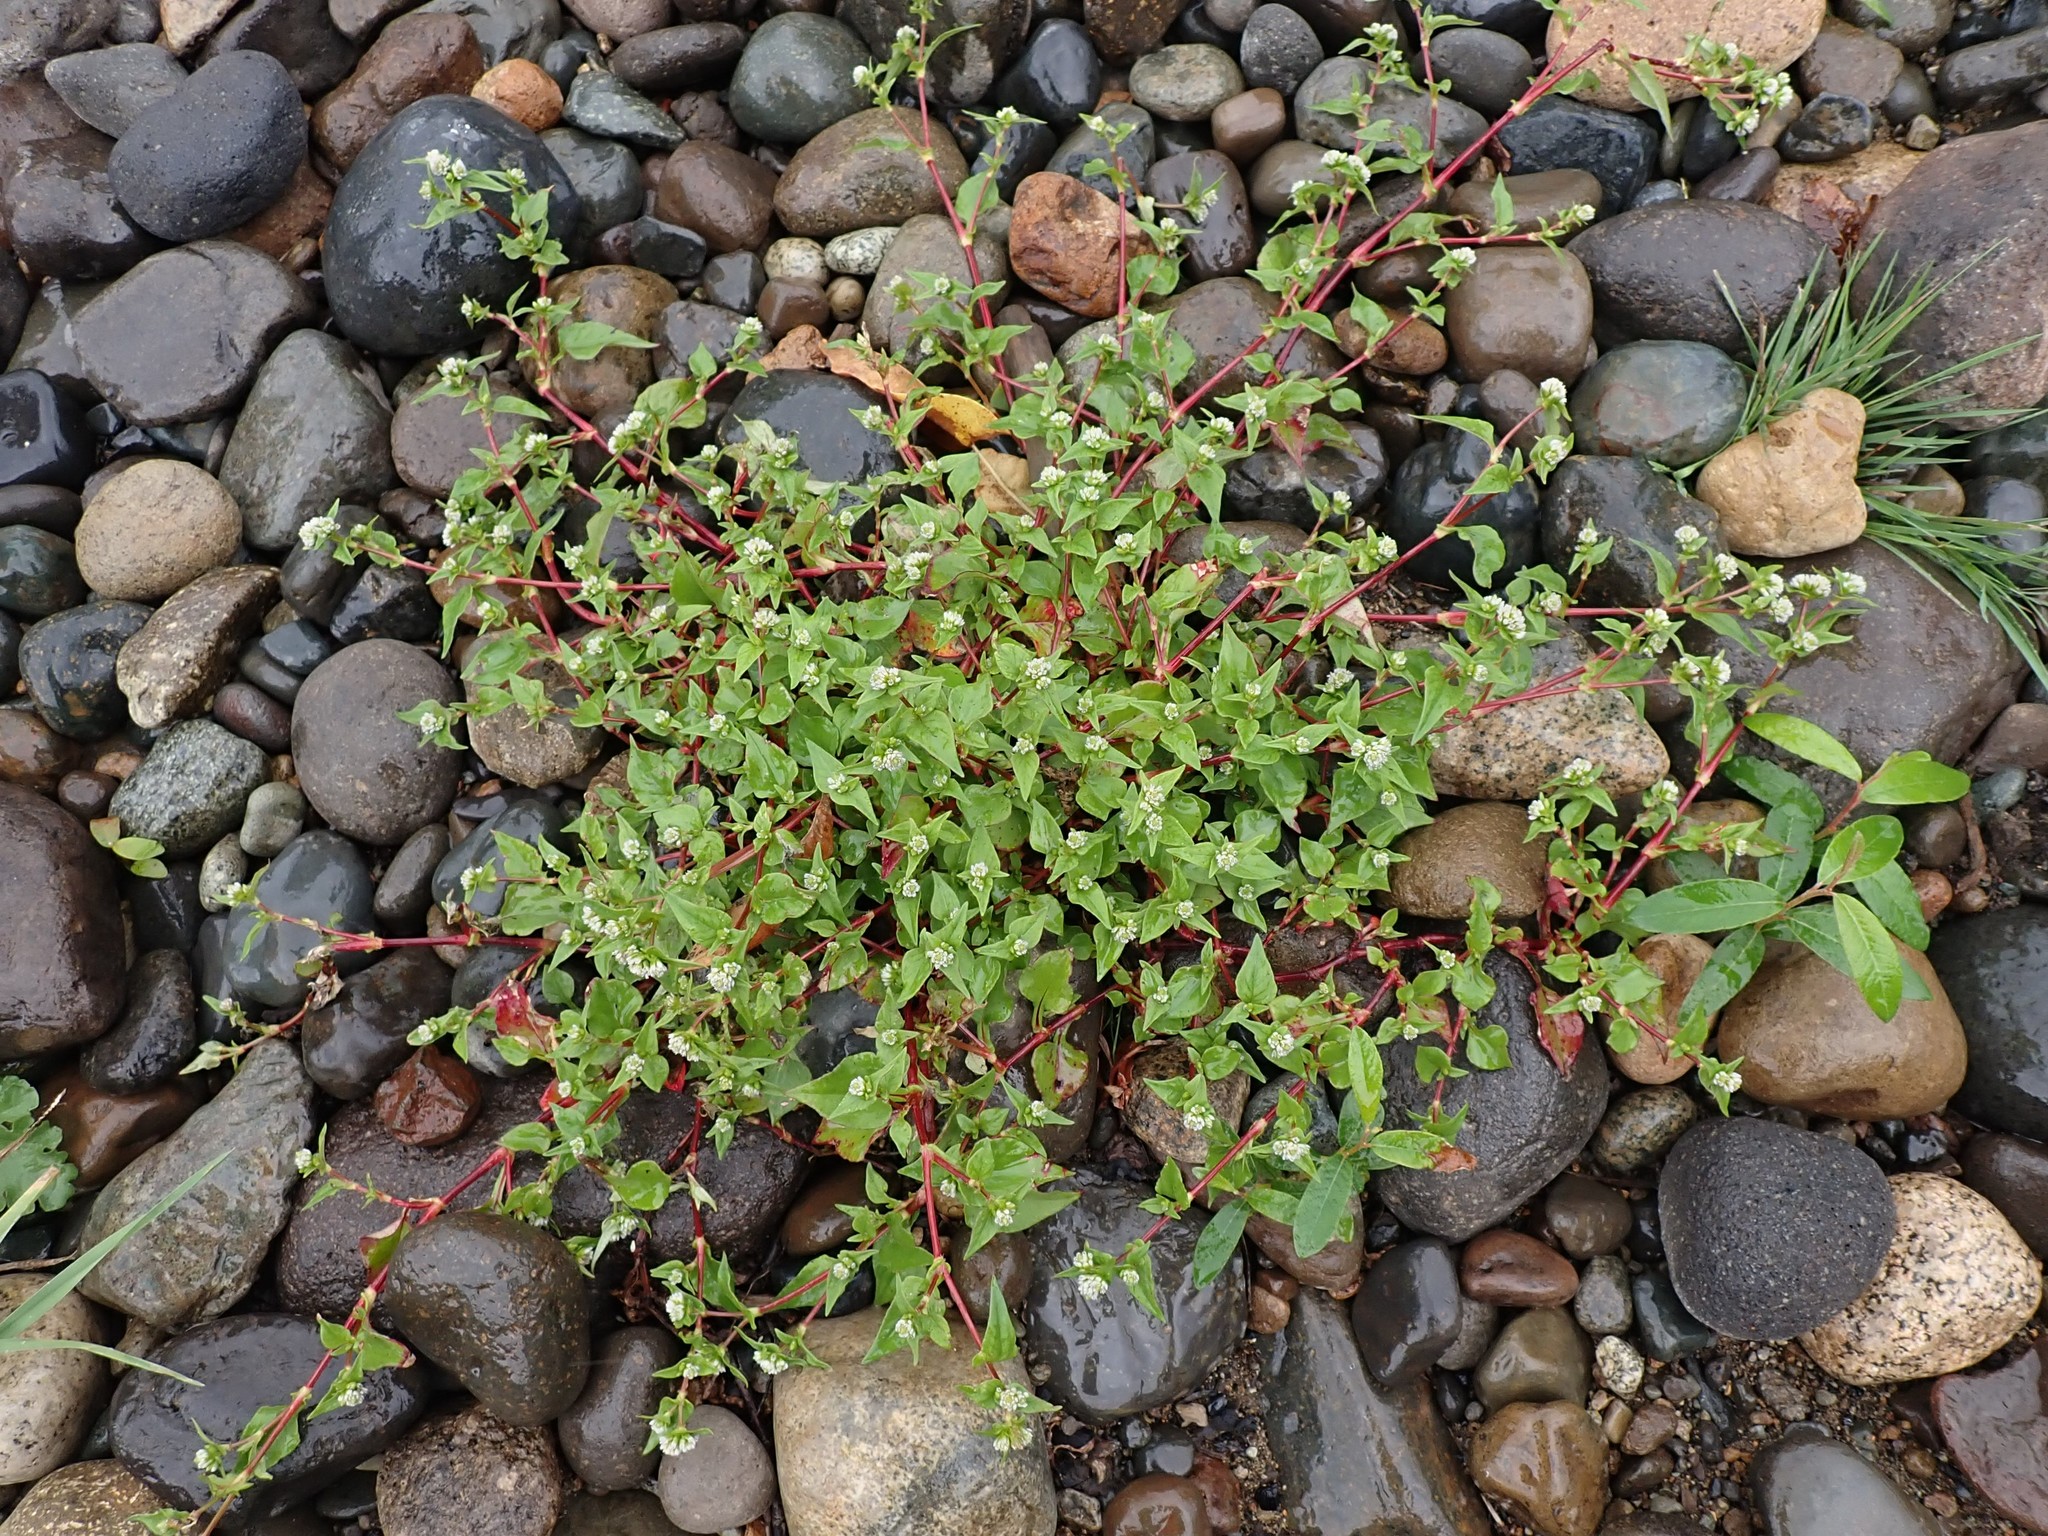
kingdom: Plantae
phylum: Tracheophyta
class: Magnoliopsida
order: Caryophyllales
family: Polygonaceae
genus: Persicaria
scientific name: Persicaria nepalensis
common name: Nepal persicaria
